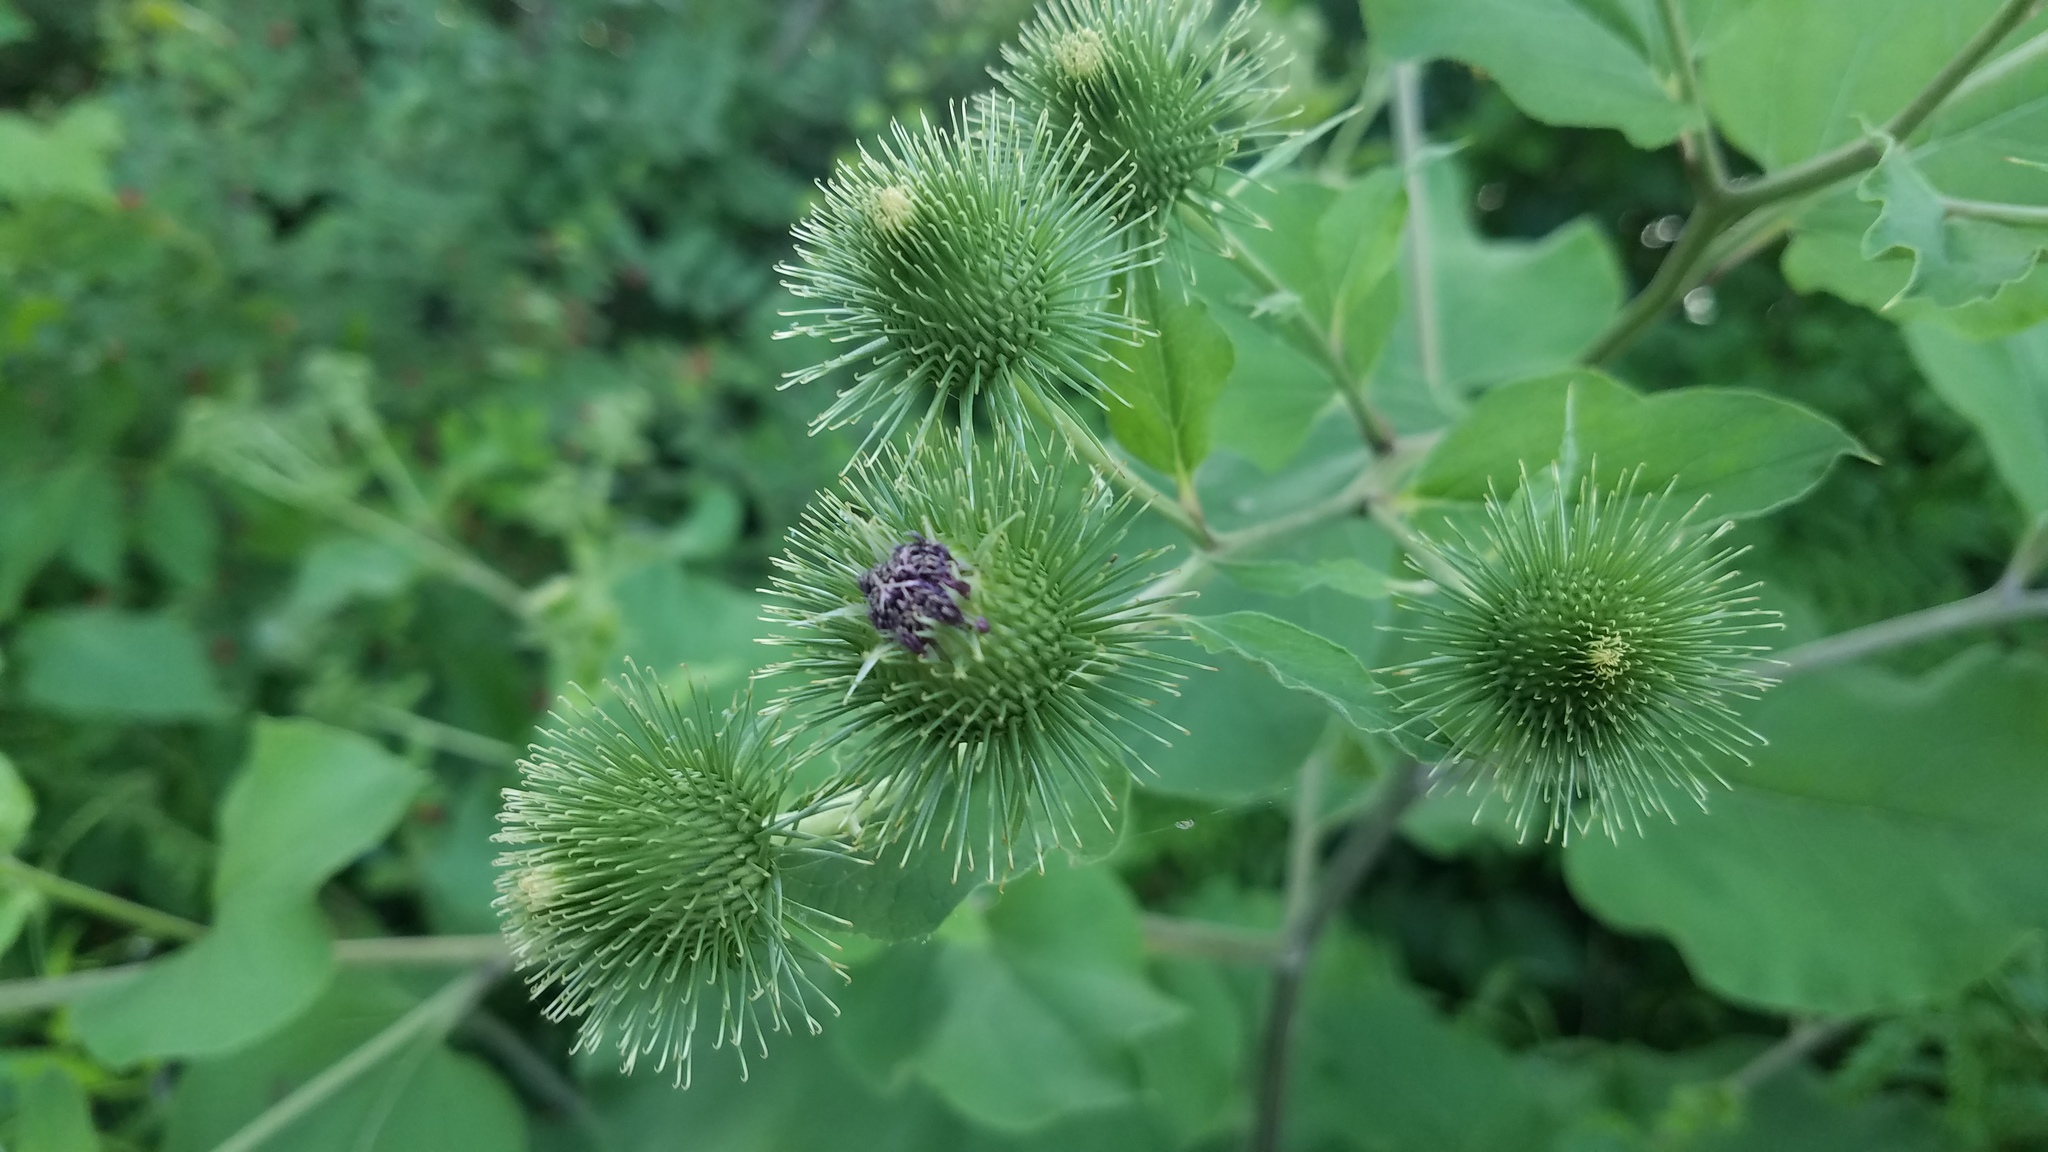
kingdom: Plantae
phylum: Tracheophyta
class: Magnoliopsida
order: Asterales
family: Asteraceae
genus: Arctium
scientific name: Arctium lappa
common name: Greater burdock
